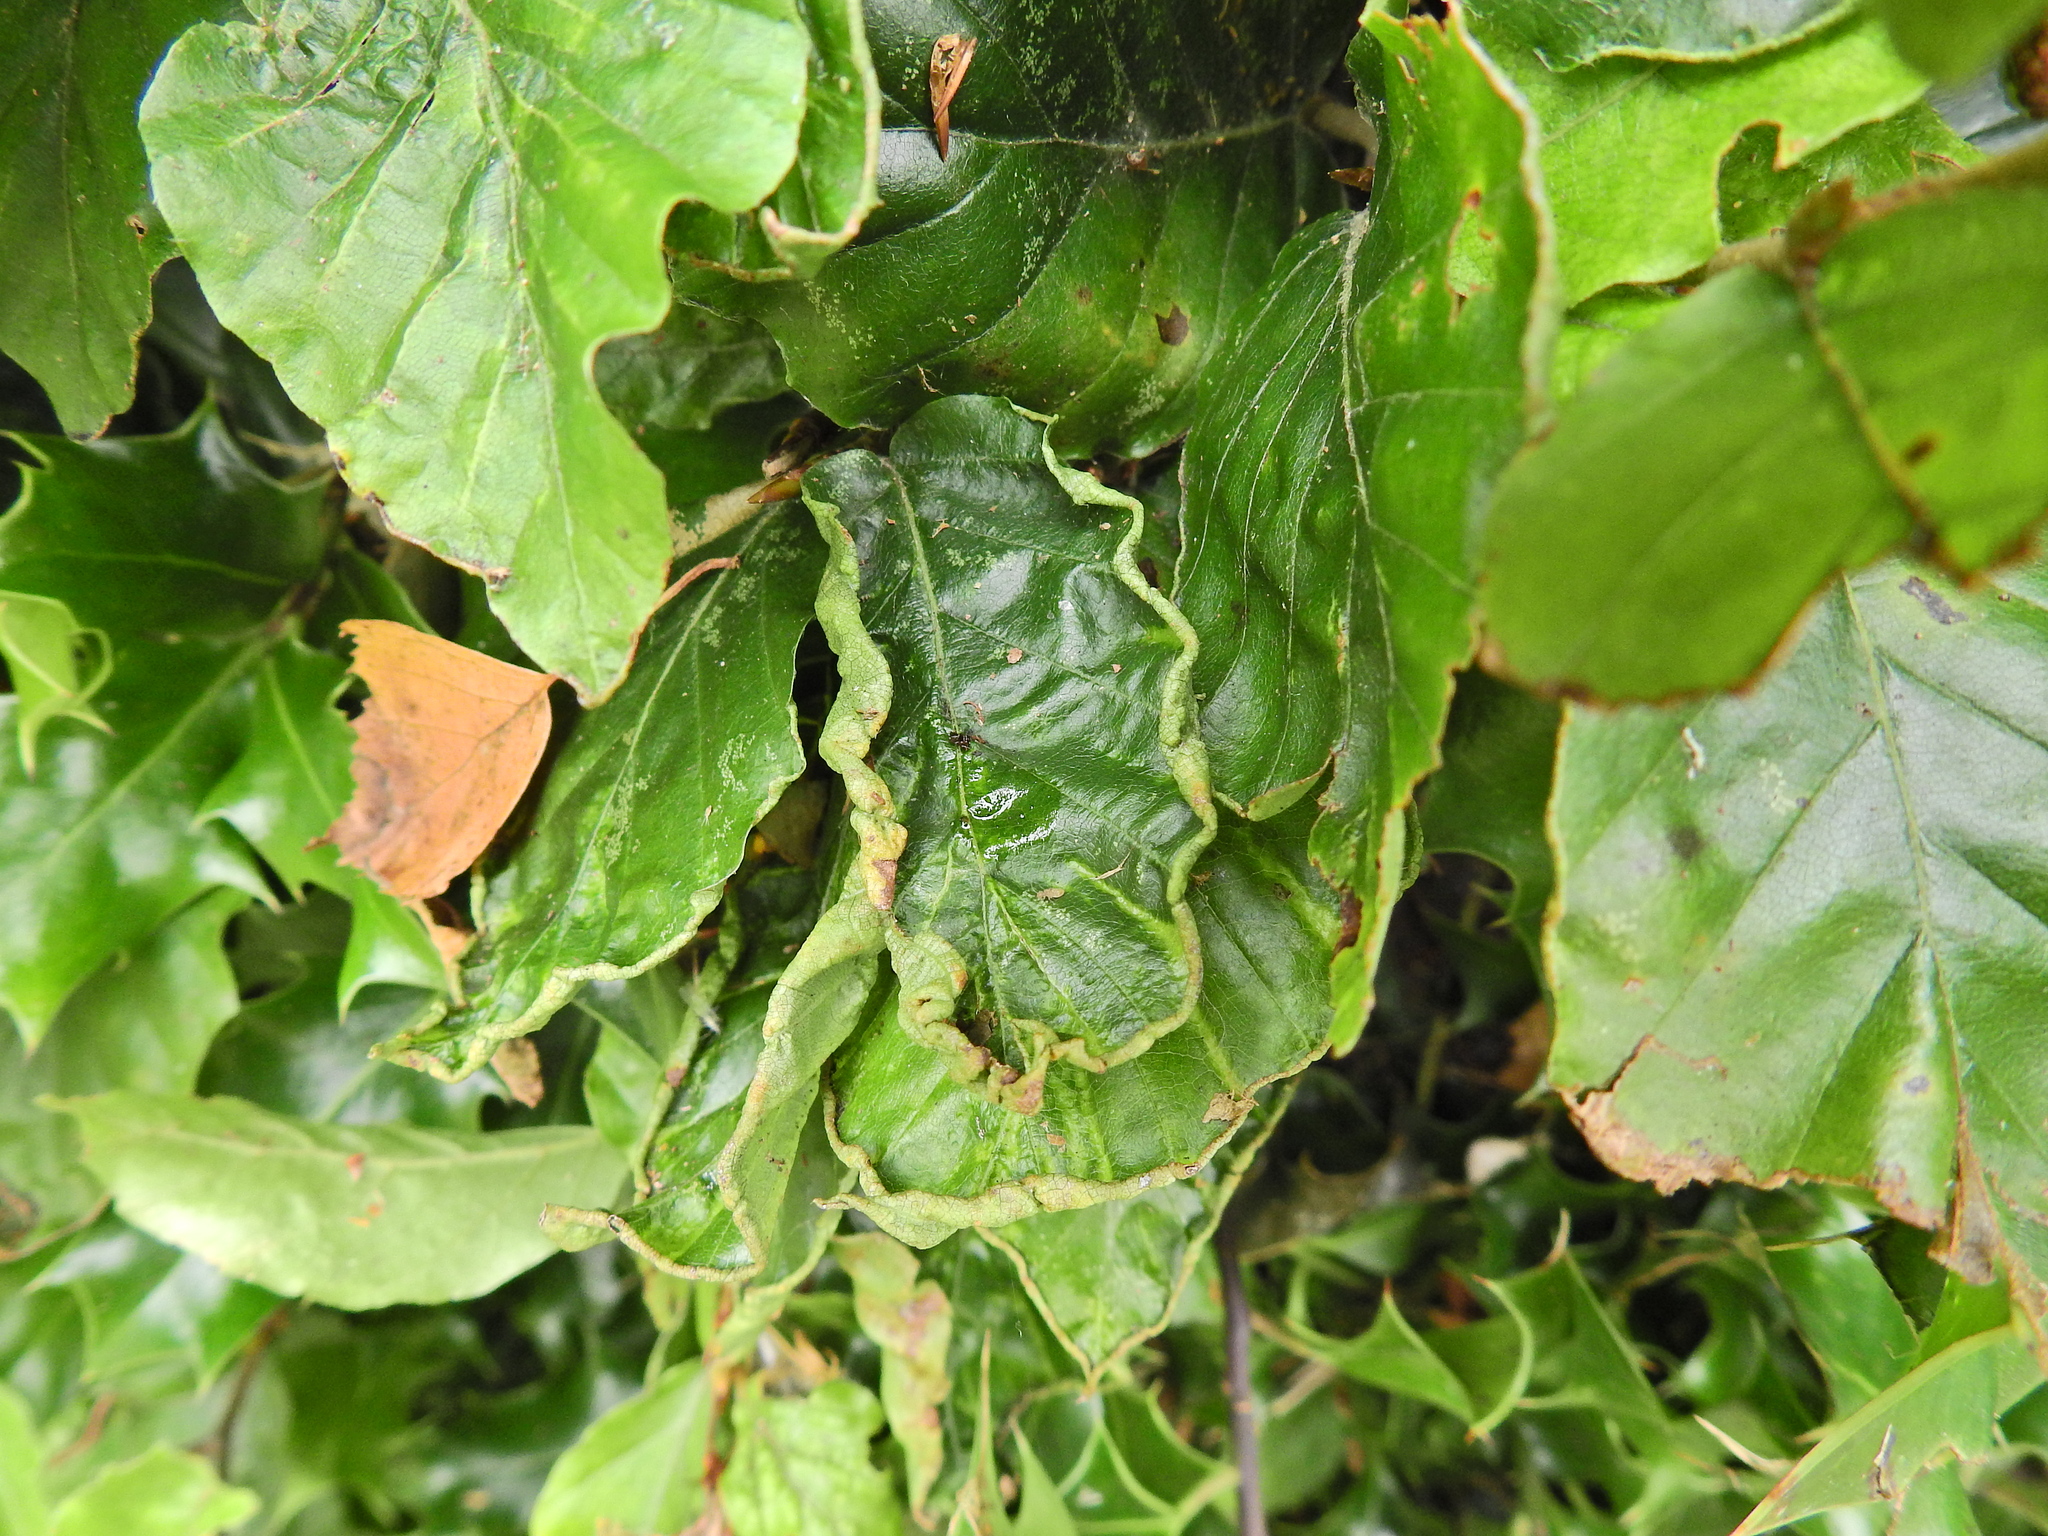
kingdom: Animalia
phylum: Arthropoda
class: Arachnida
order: Trombidiformes
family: Eriophyidae
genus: Acalitus
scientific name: Acalitus stenaspis
